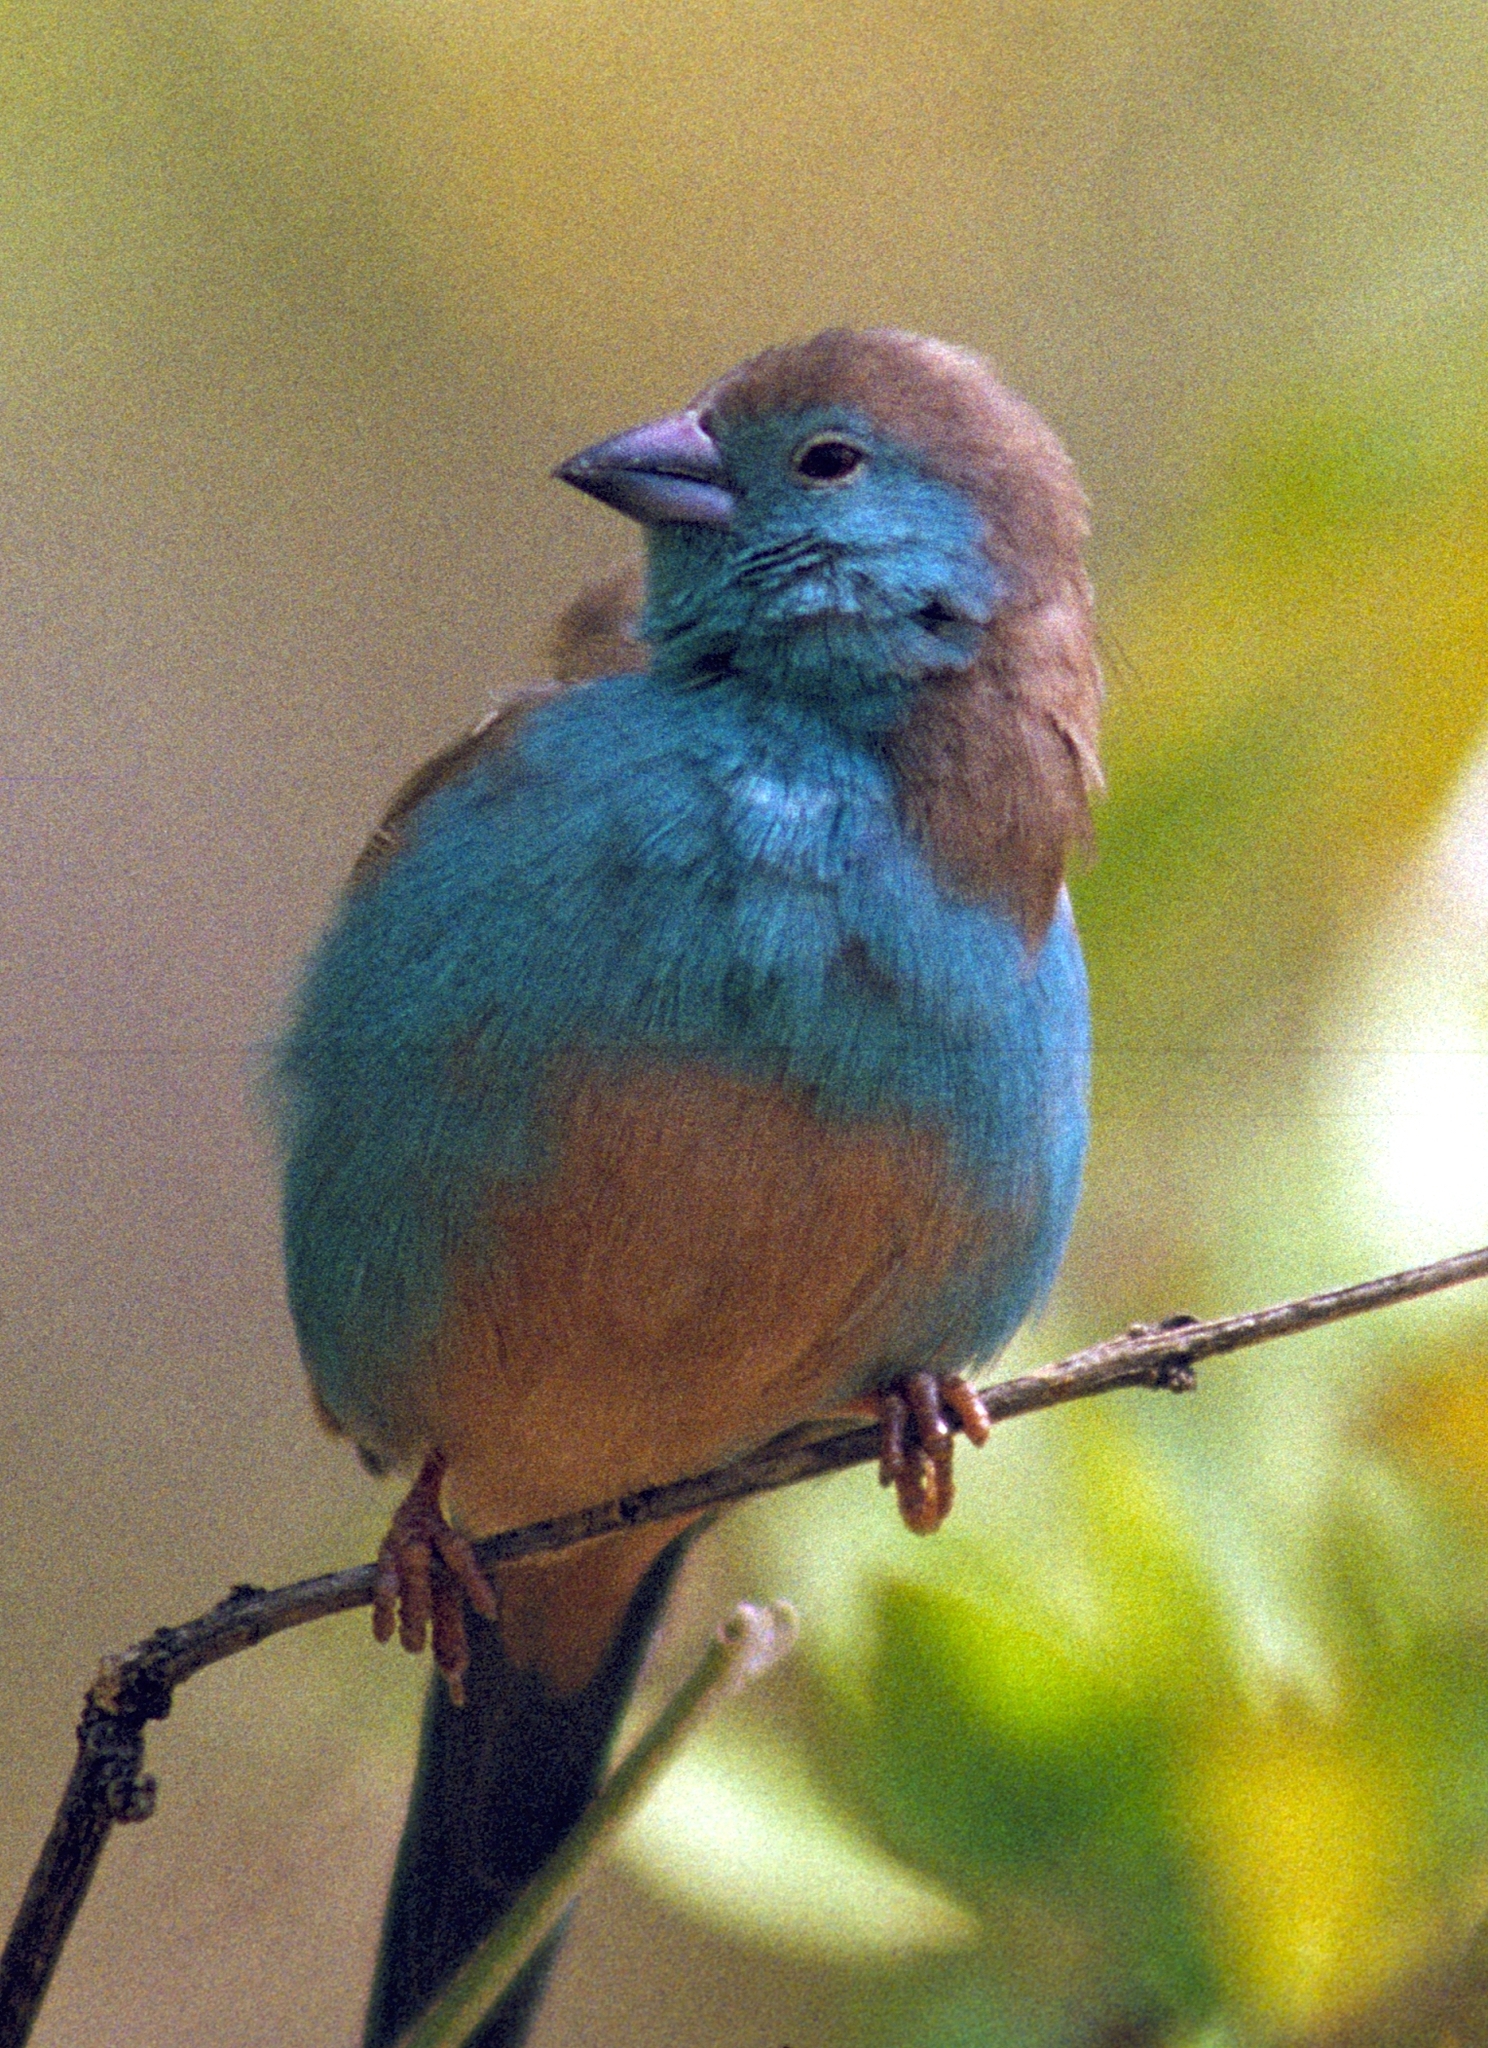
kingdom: Animalia
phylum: Chordata
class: Aves
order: Passeriformes
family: Estrildidae
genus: Uraeginthus
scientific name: Uraeginthus angolensis
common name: Blue waxbill
